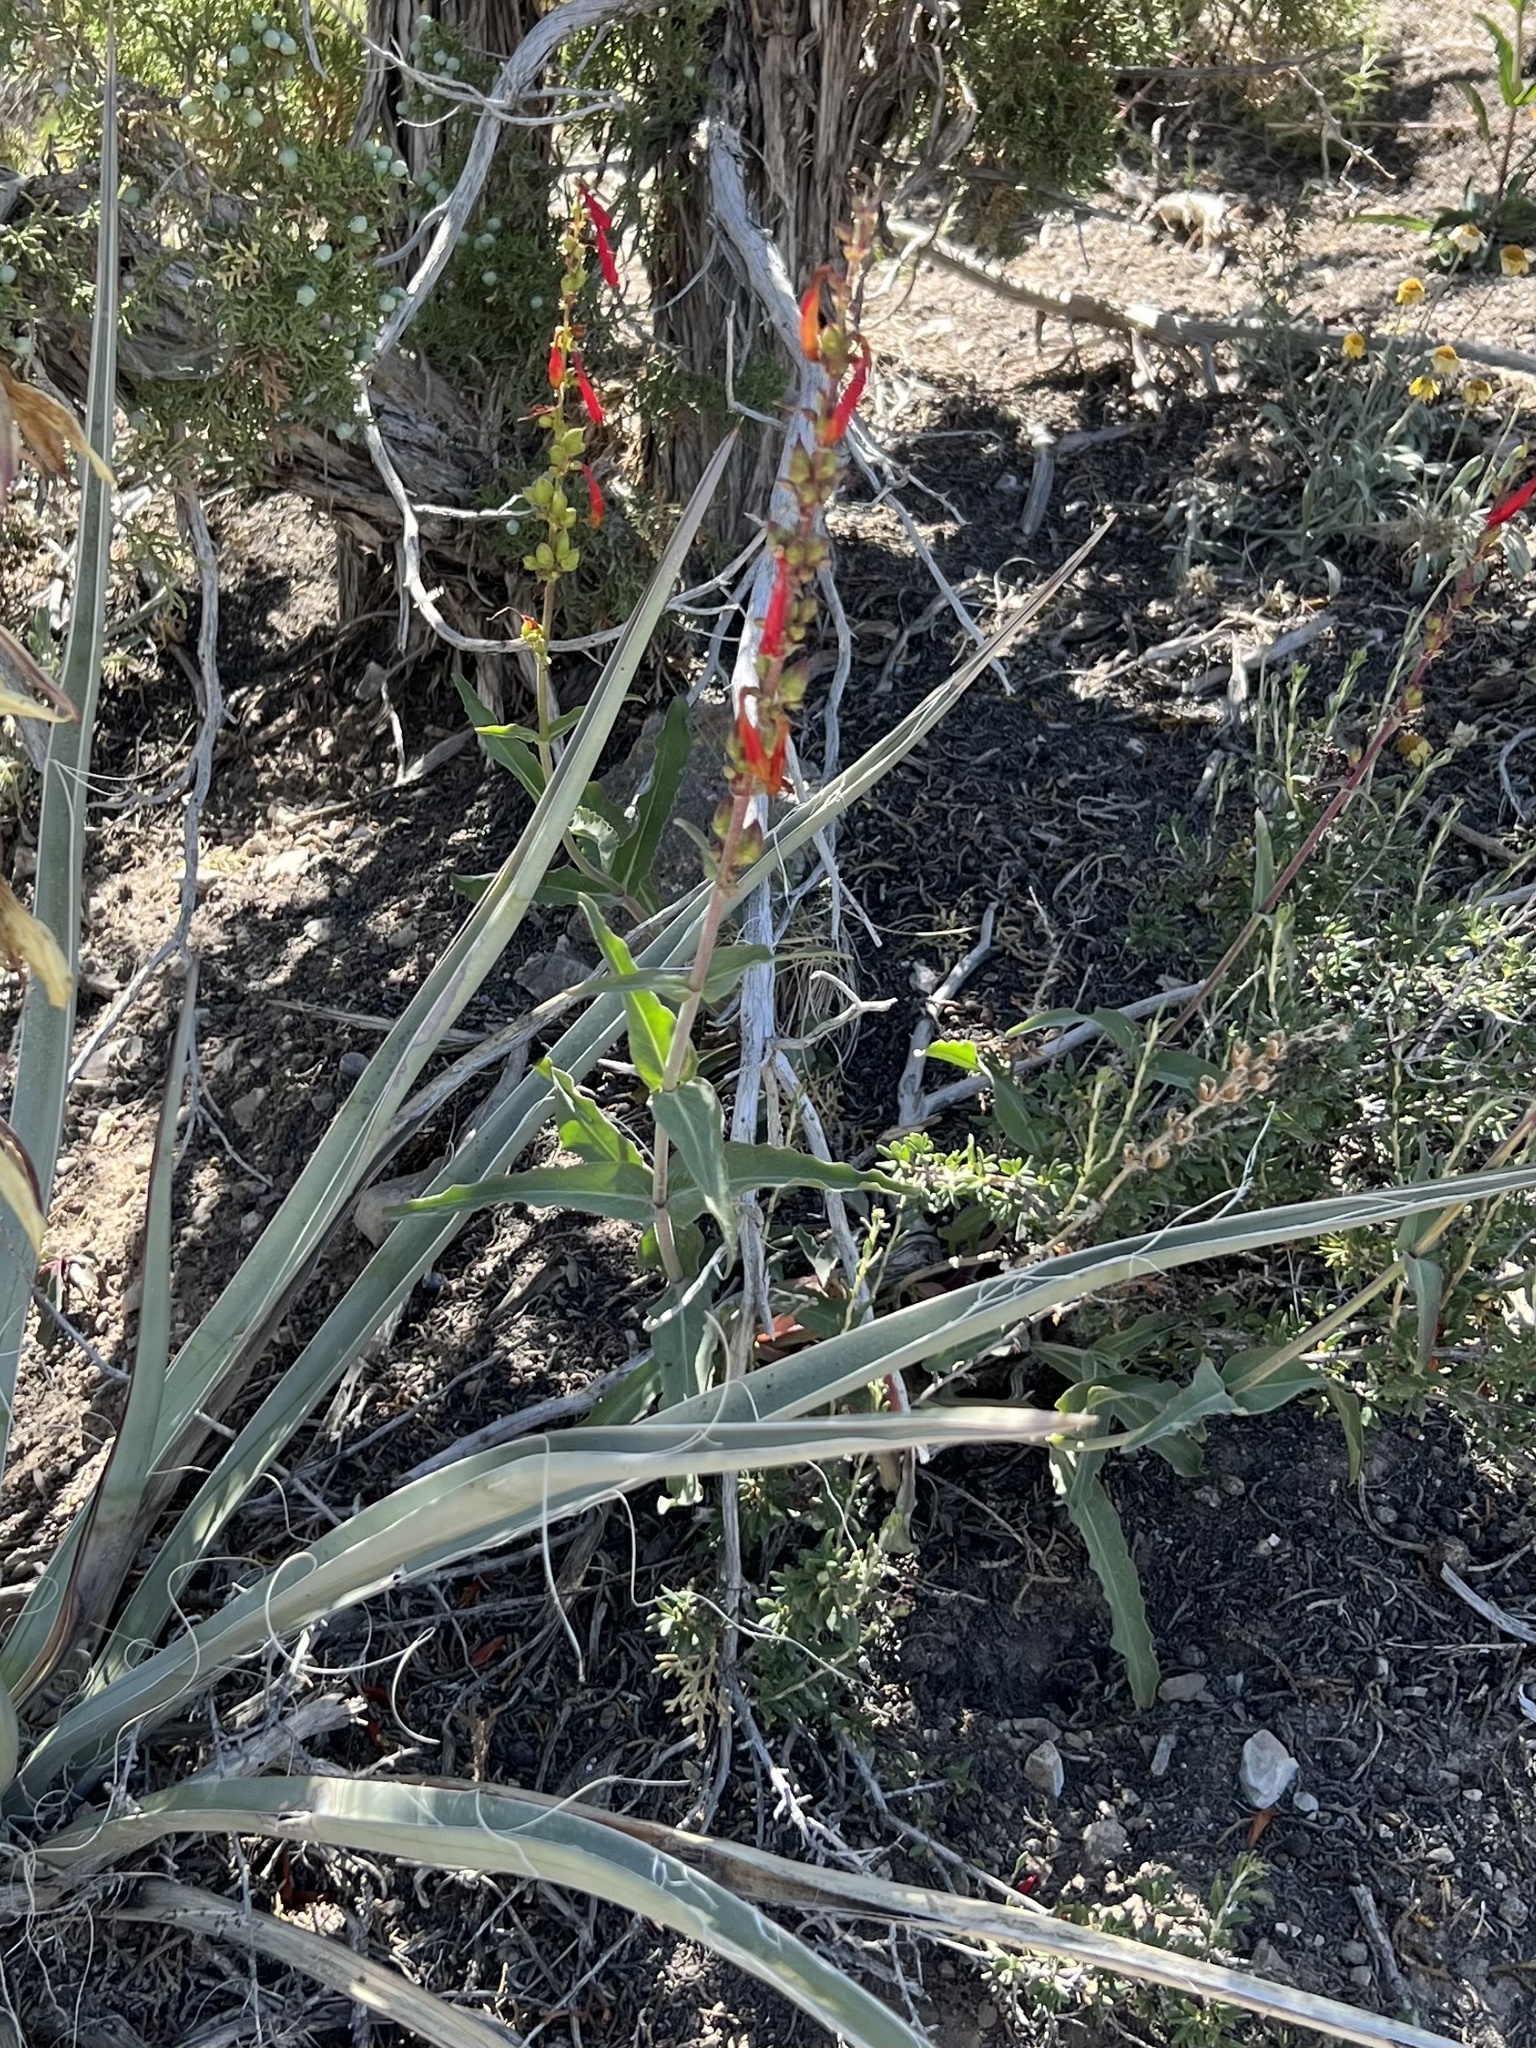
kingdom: Plantae
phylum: Tracheophyta
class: Magnoliopsida
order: Lamiales
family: Plantaginaceae
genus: Penstemon
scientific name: Penstemon eatonii
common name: Eaton's penstemon
